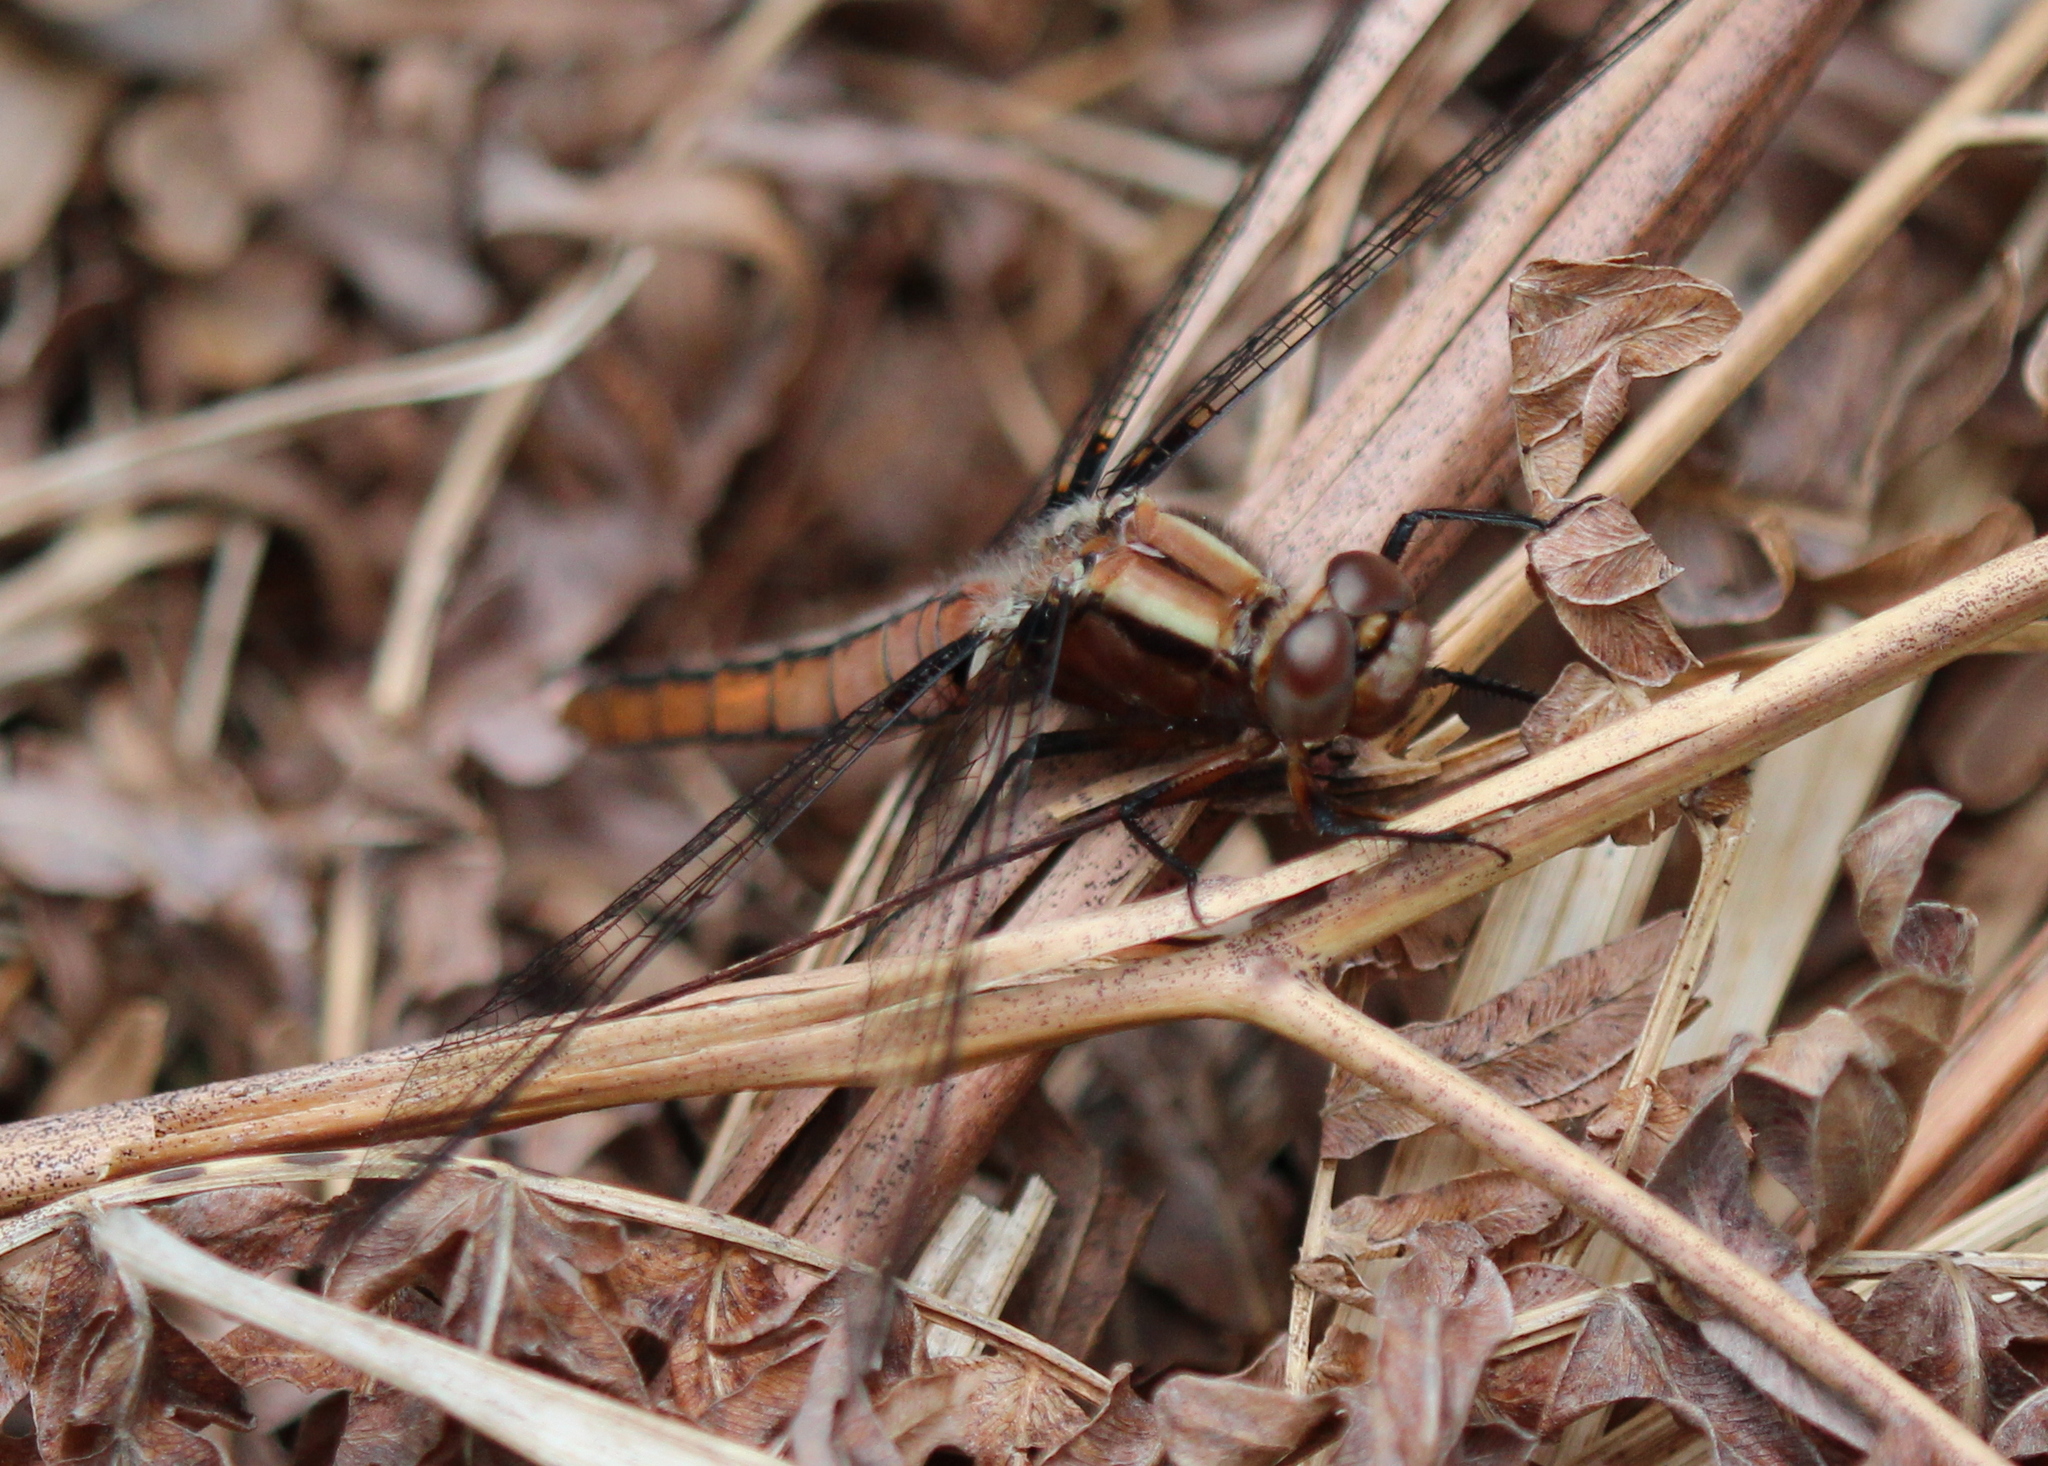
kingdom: Animalia
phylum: Arthropoda
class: Insecta
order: Odonata
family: Libellulidae
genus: Ladona
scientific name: Ladona julia
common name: Chalk-fronted corporal
